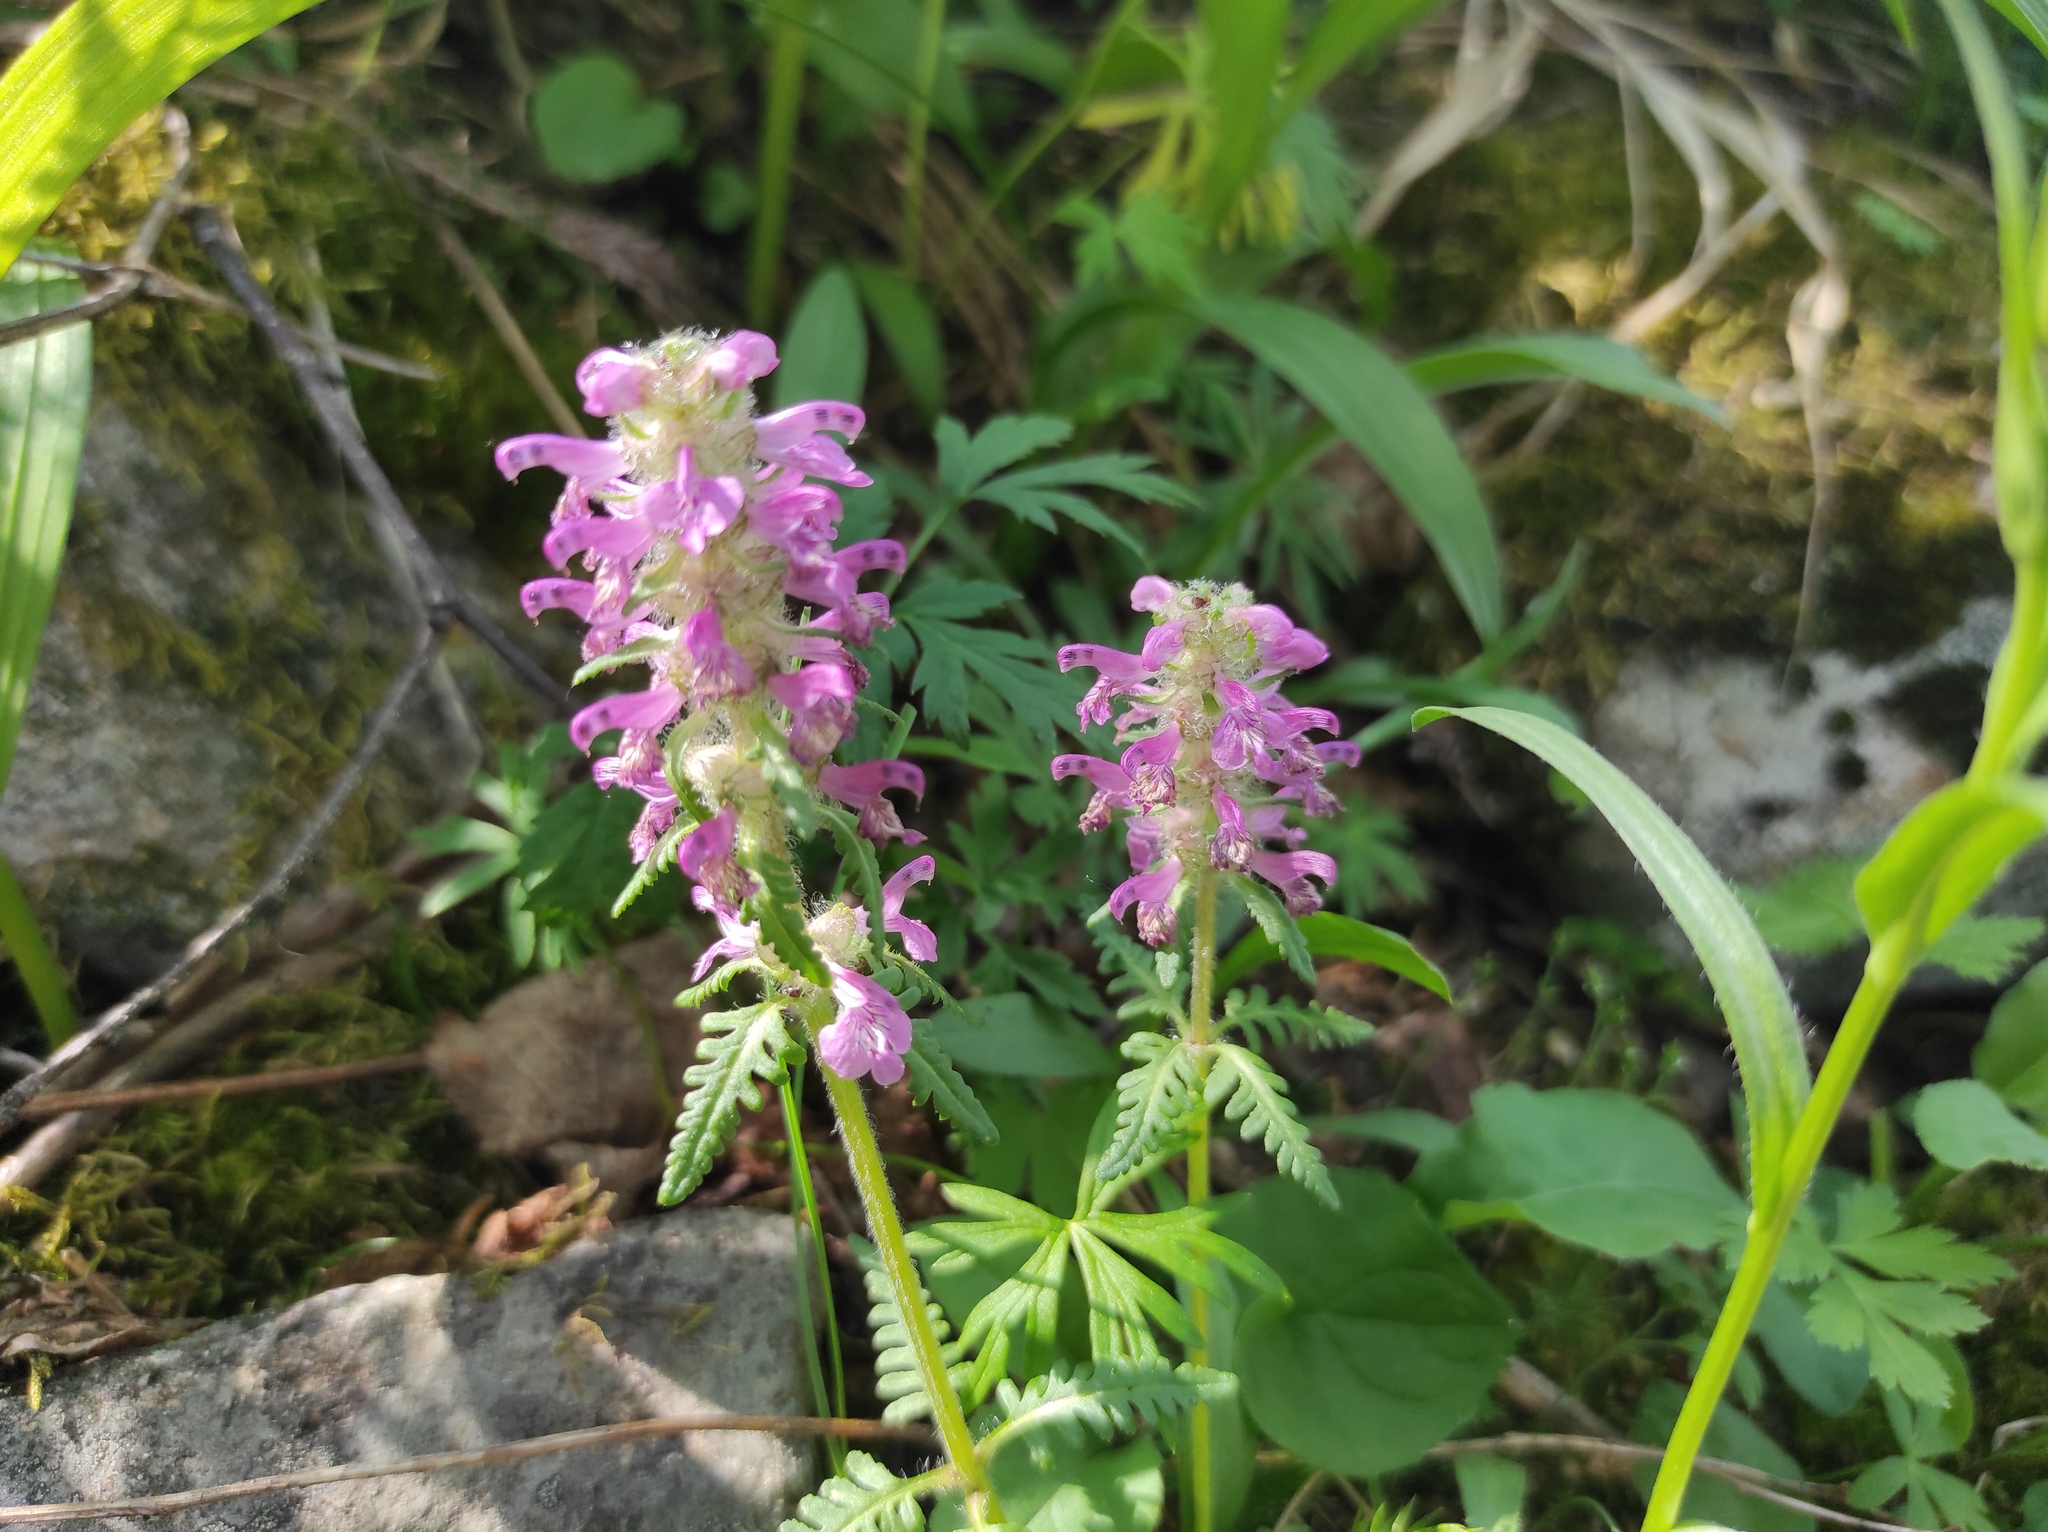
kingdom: Plantae
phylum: Tracheophyta
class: Magnoliopsida
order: Lamiales
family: Orobanchaceae
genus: Pedicularis
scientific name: Pedicularis verticillata
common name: Whorled lousewort
